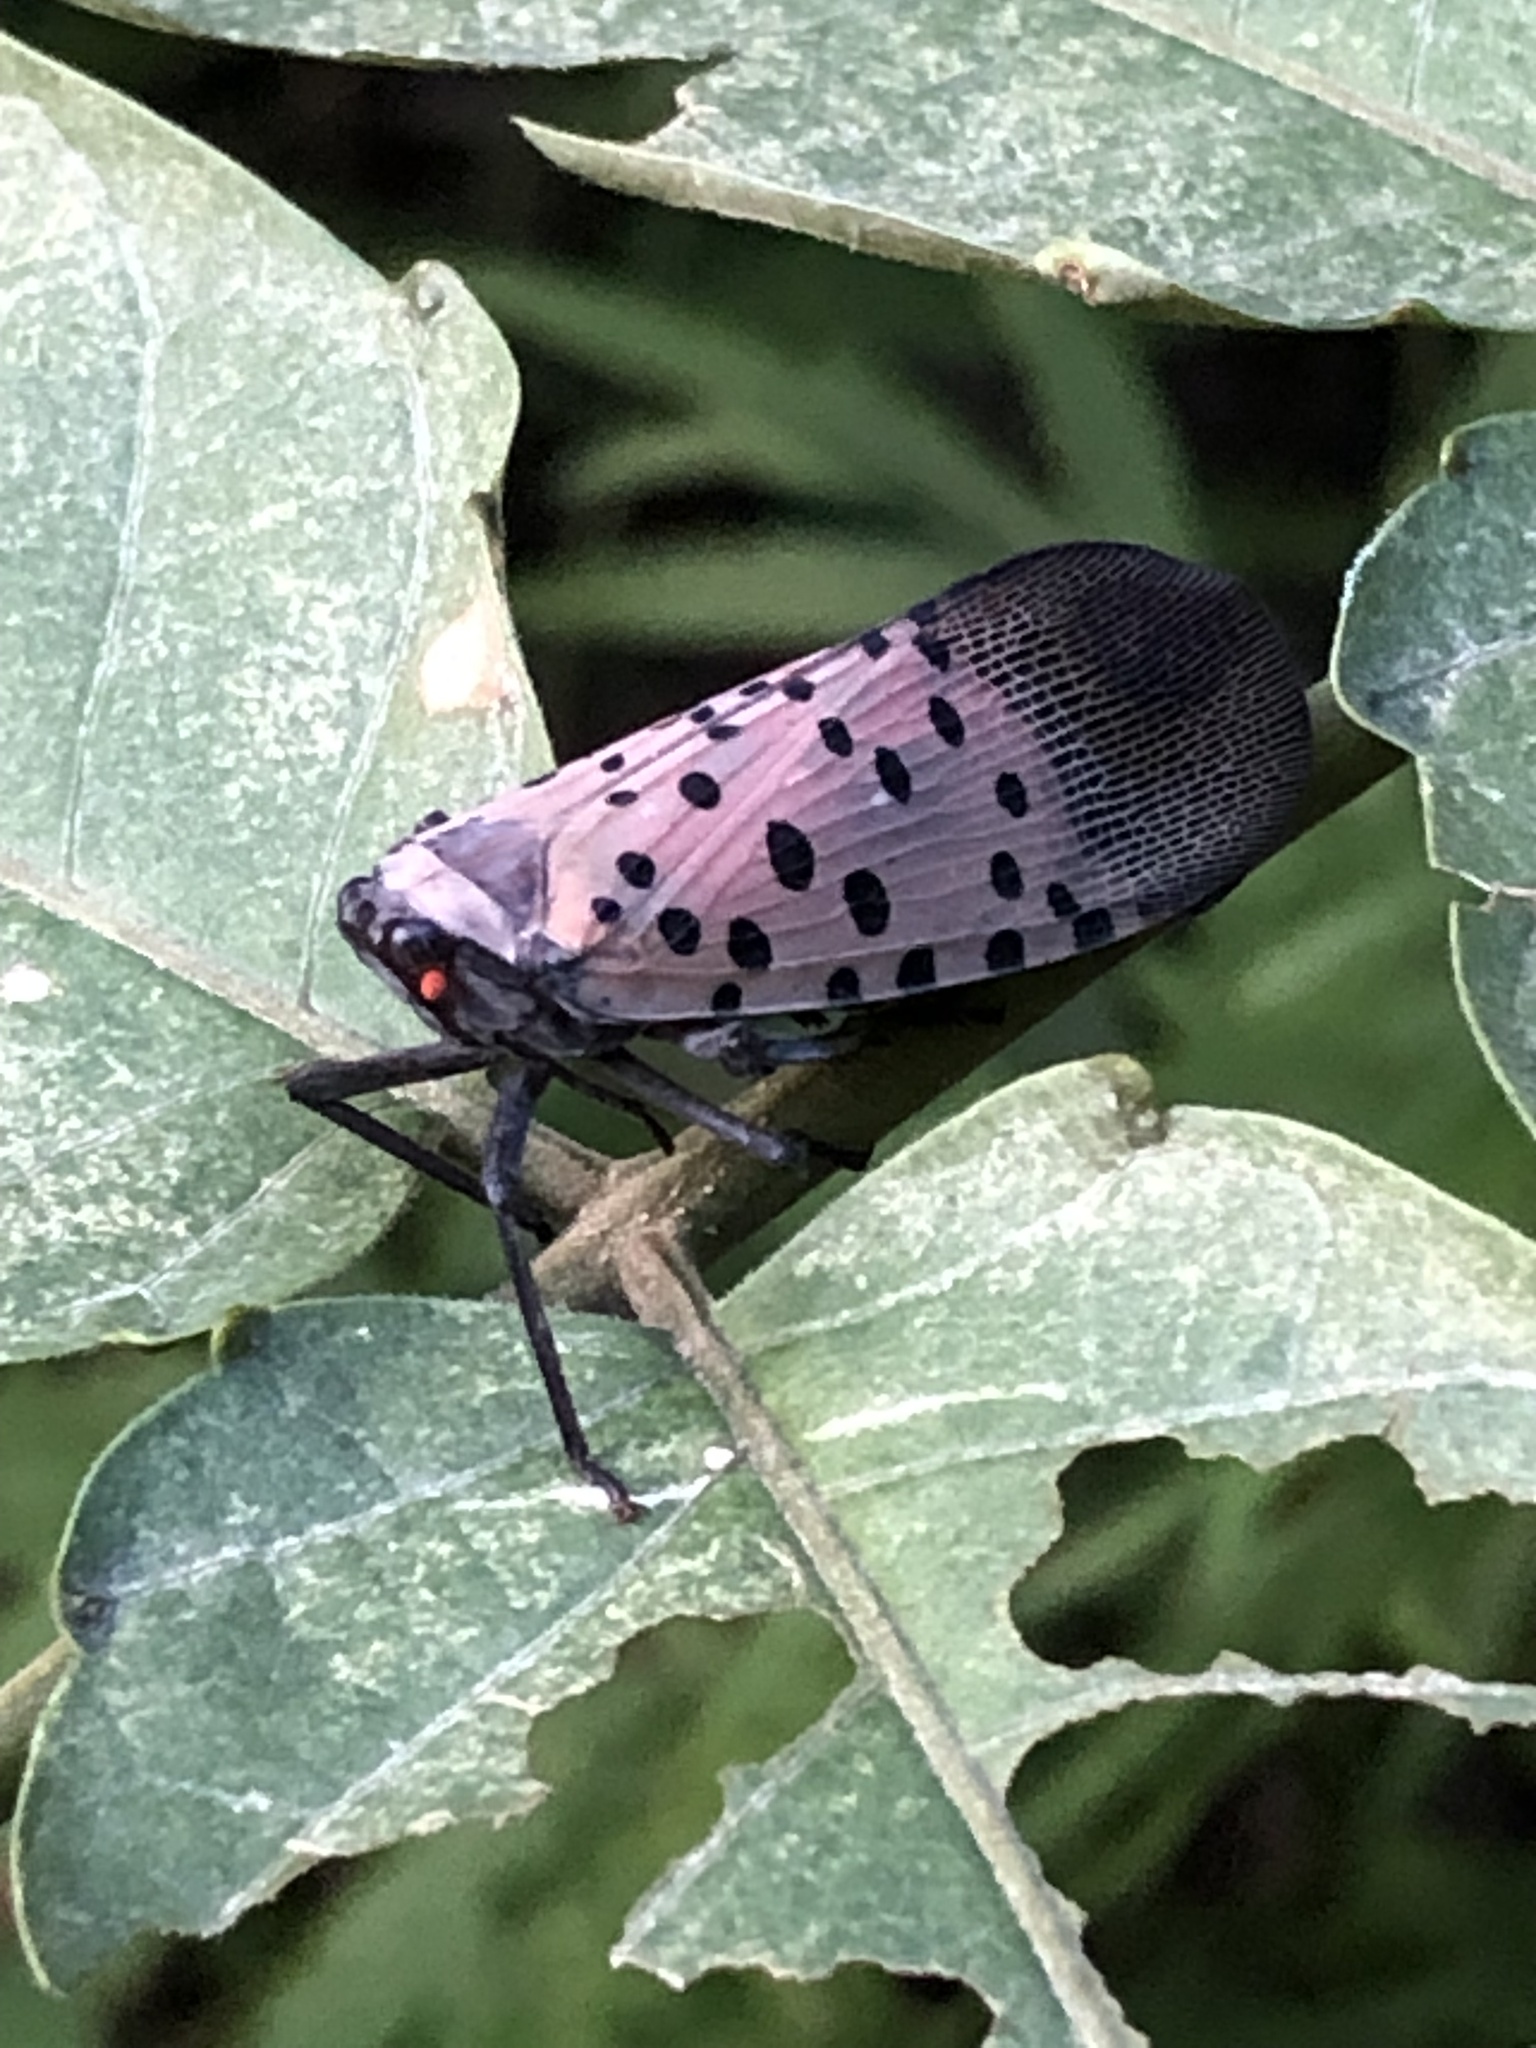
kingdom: Animalia
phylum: Arthropoda
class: Insecta
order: Hemiptera
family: Fulgoridae
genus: Lycorma
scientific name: Lycorma delicatula
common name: Spotted lanternfly
